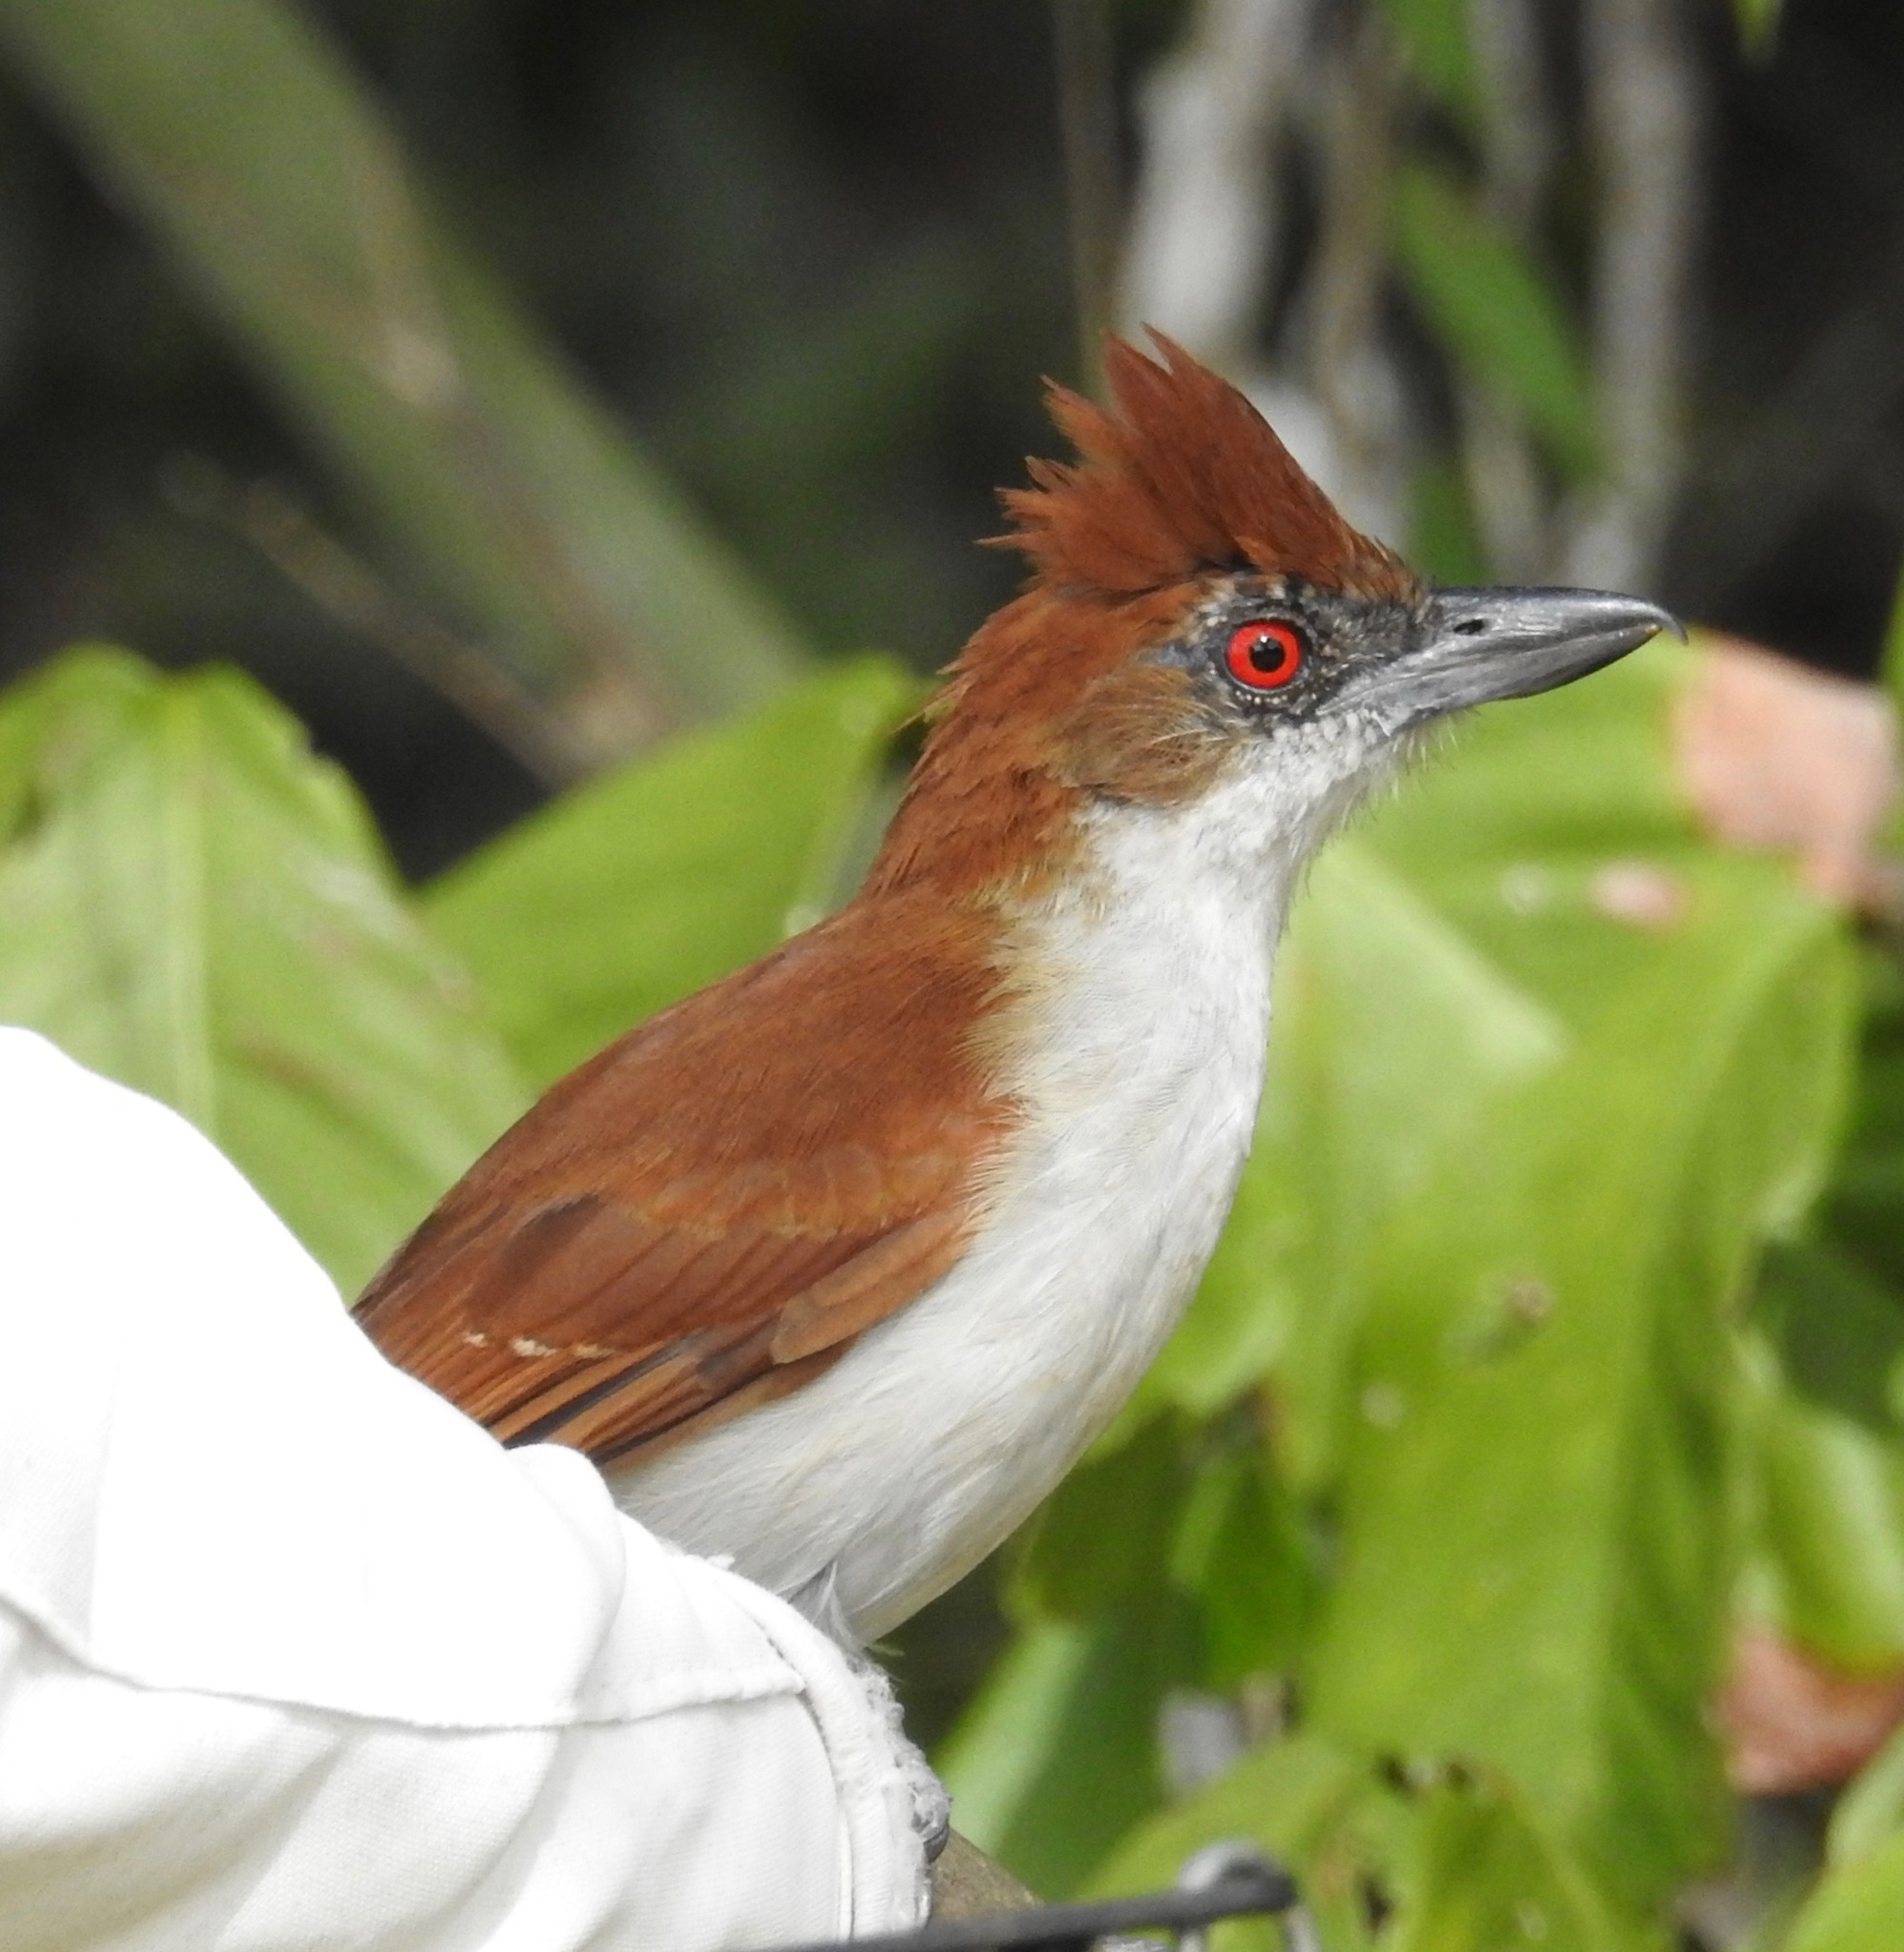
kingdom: Animalia
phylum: Chordata
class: Aves
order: Passeriformes
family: Thamnophilidae
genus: Taraba
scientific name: Taraba major
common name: Great antshrike
